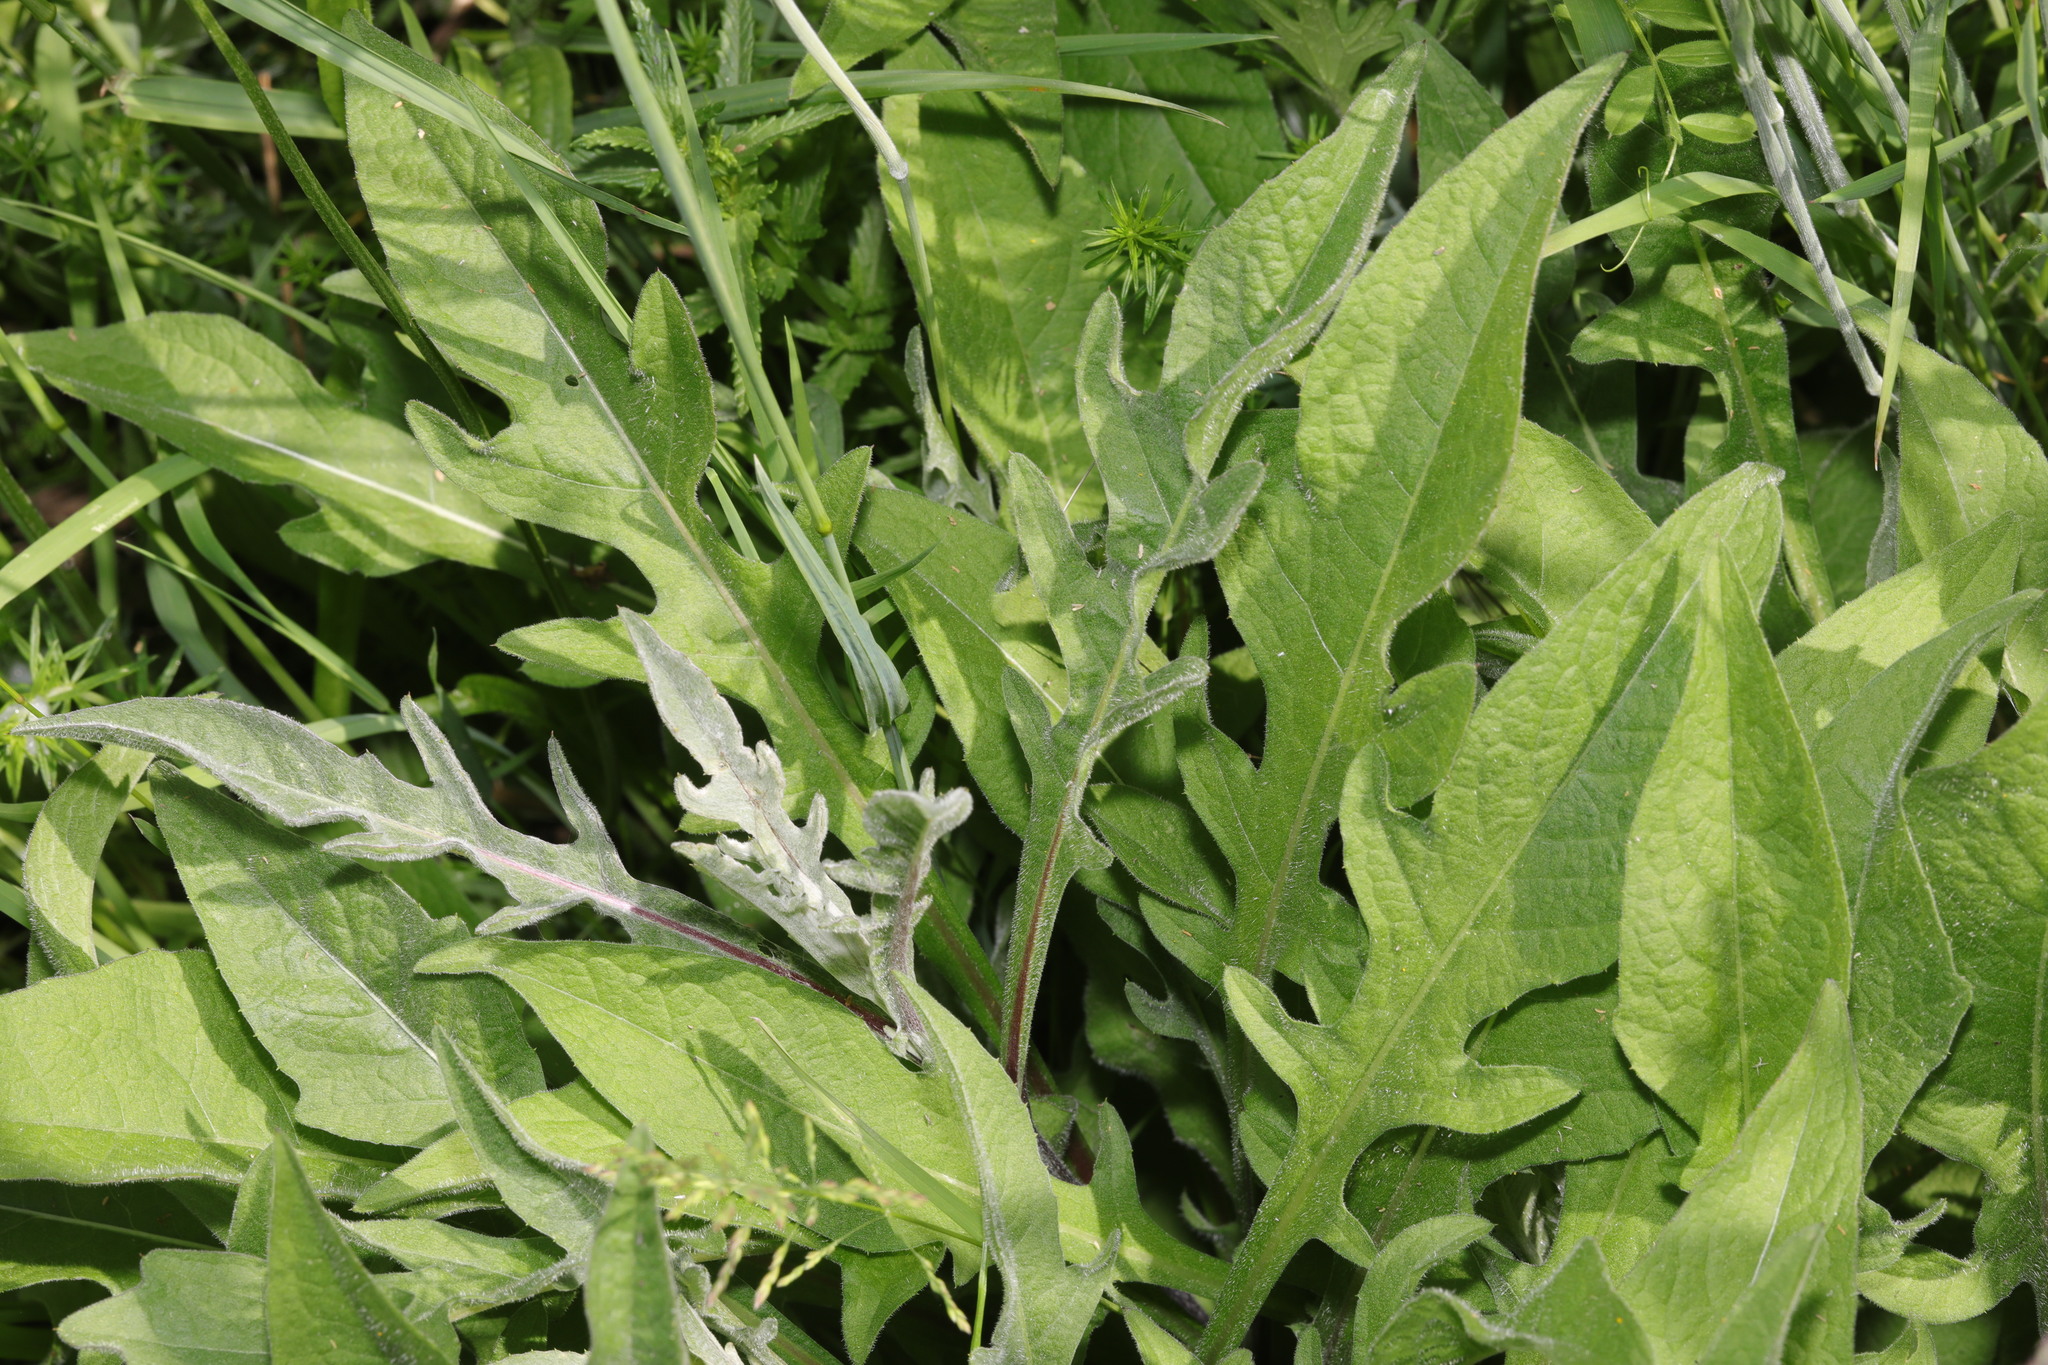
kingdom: Plantae
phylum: Tracheophyta
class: Magnoliopsida
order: Asterales
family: Asteraceae
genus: Centaurea
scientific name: Centaurea nigra
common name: Lesser knapweed
